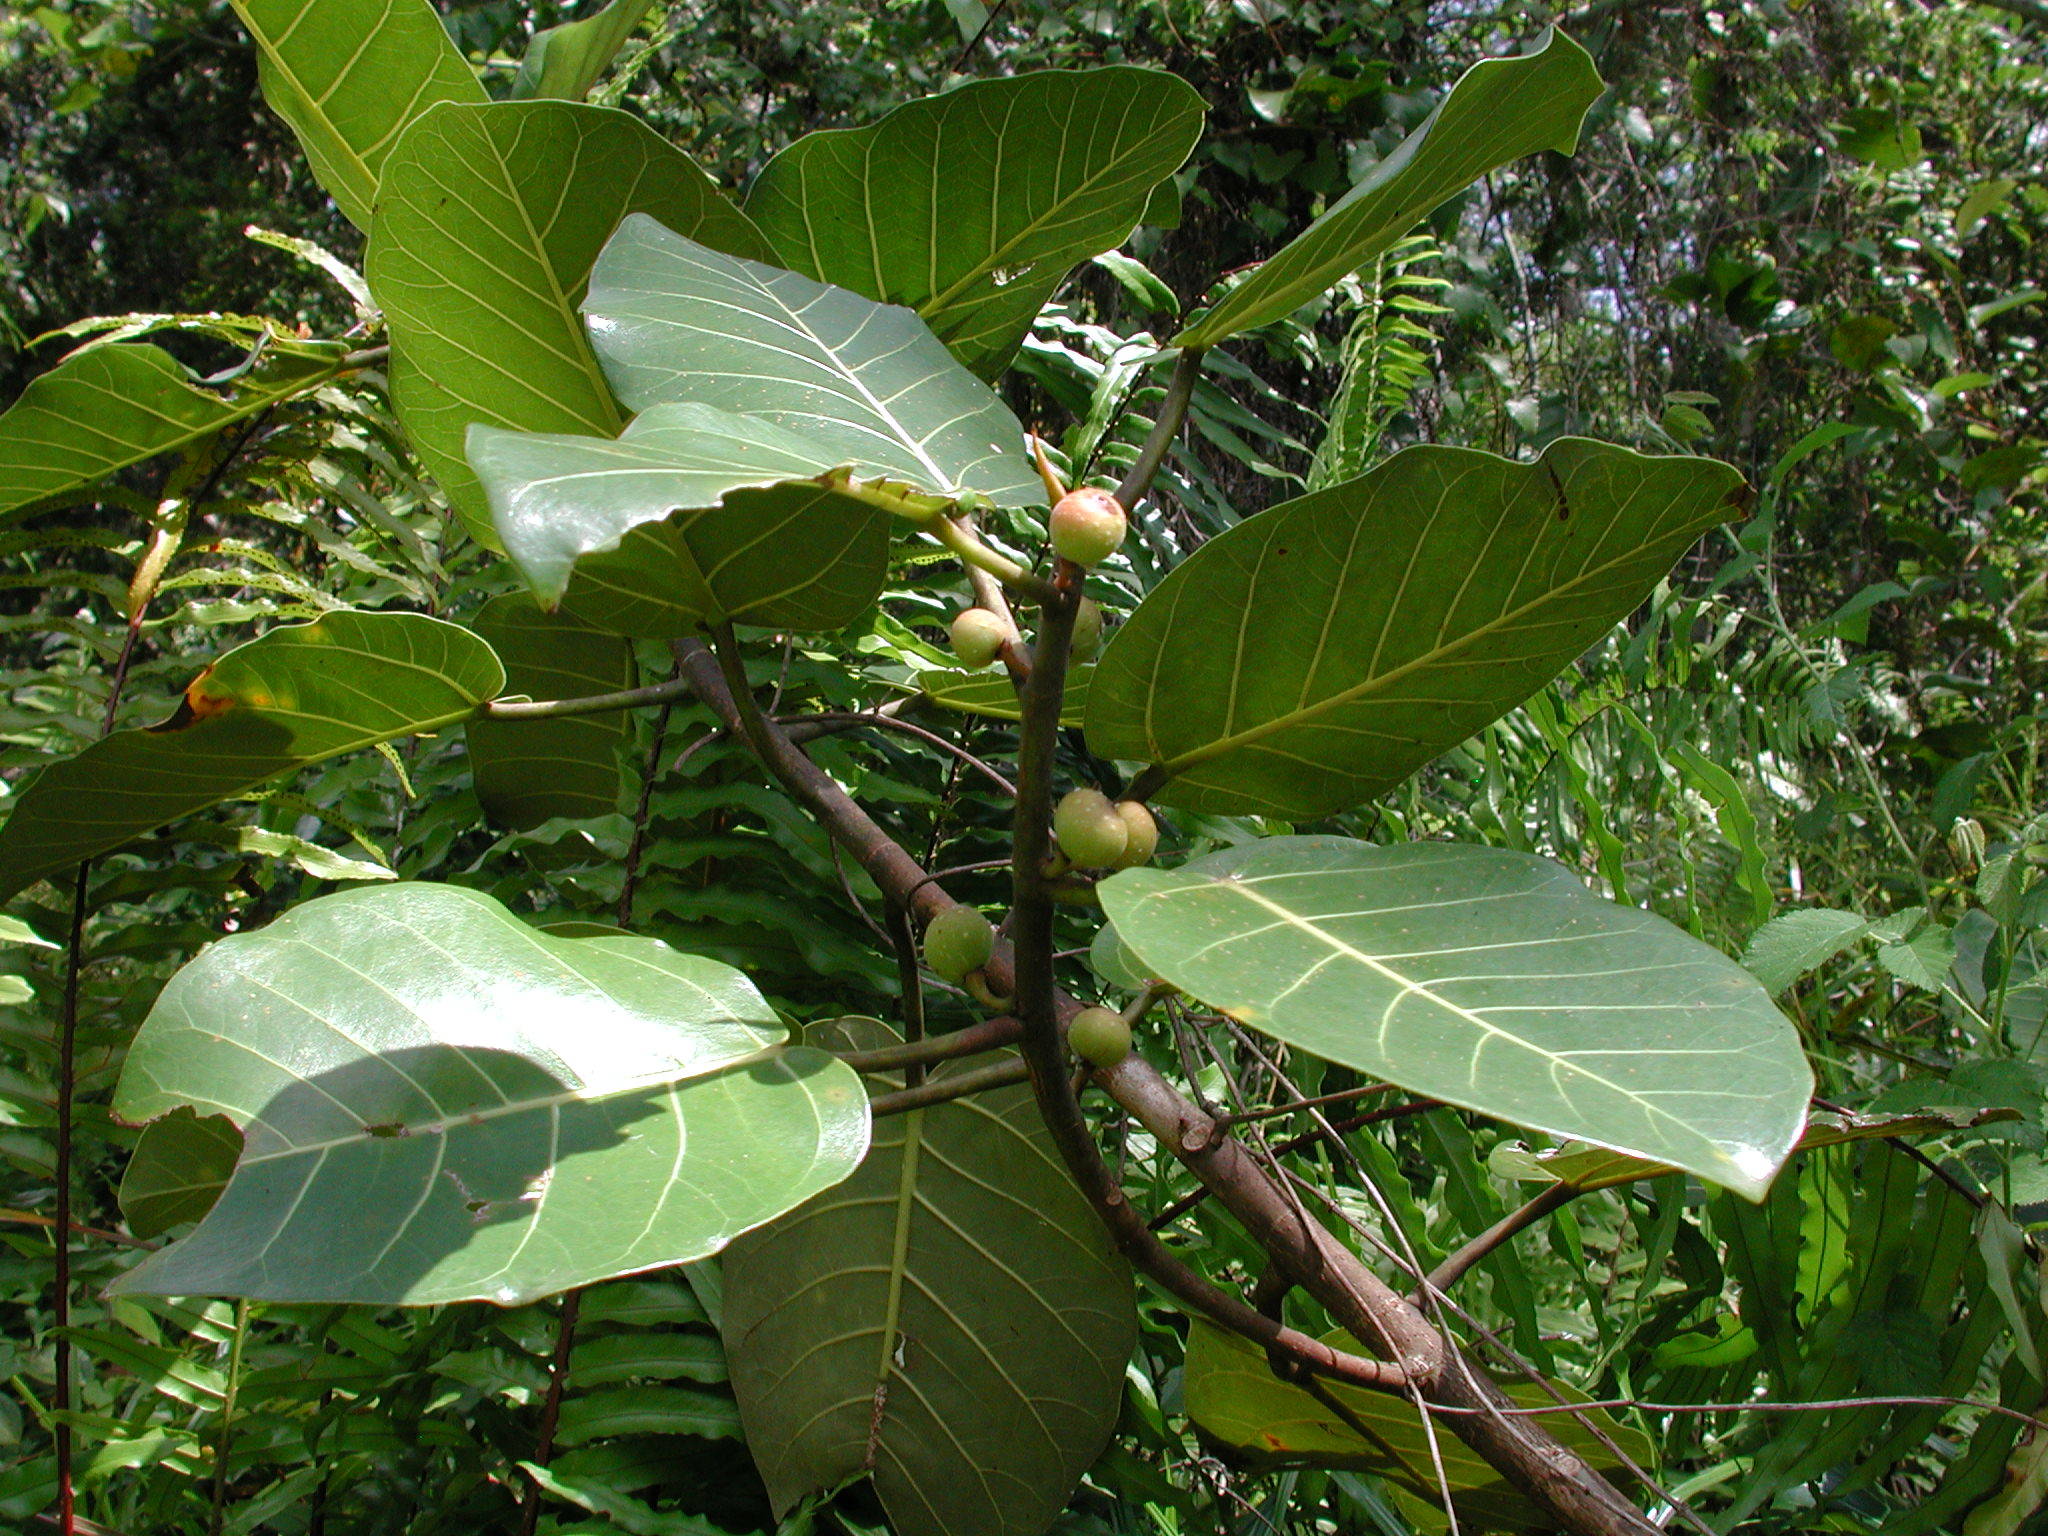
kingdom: Plantae
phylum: Tracheophyta
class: Magnoliopsida
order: Rosales
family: Moraceae
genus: Ficus
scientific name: Ficus trichopoda
